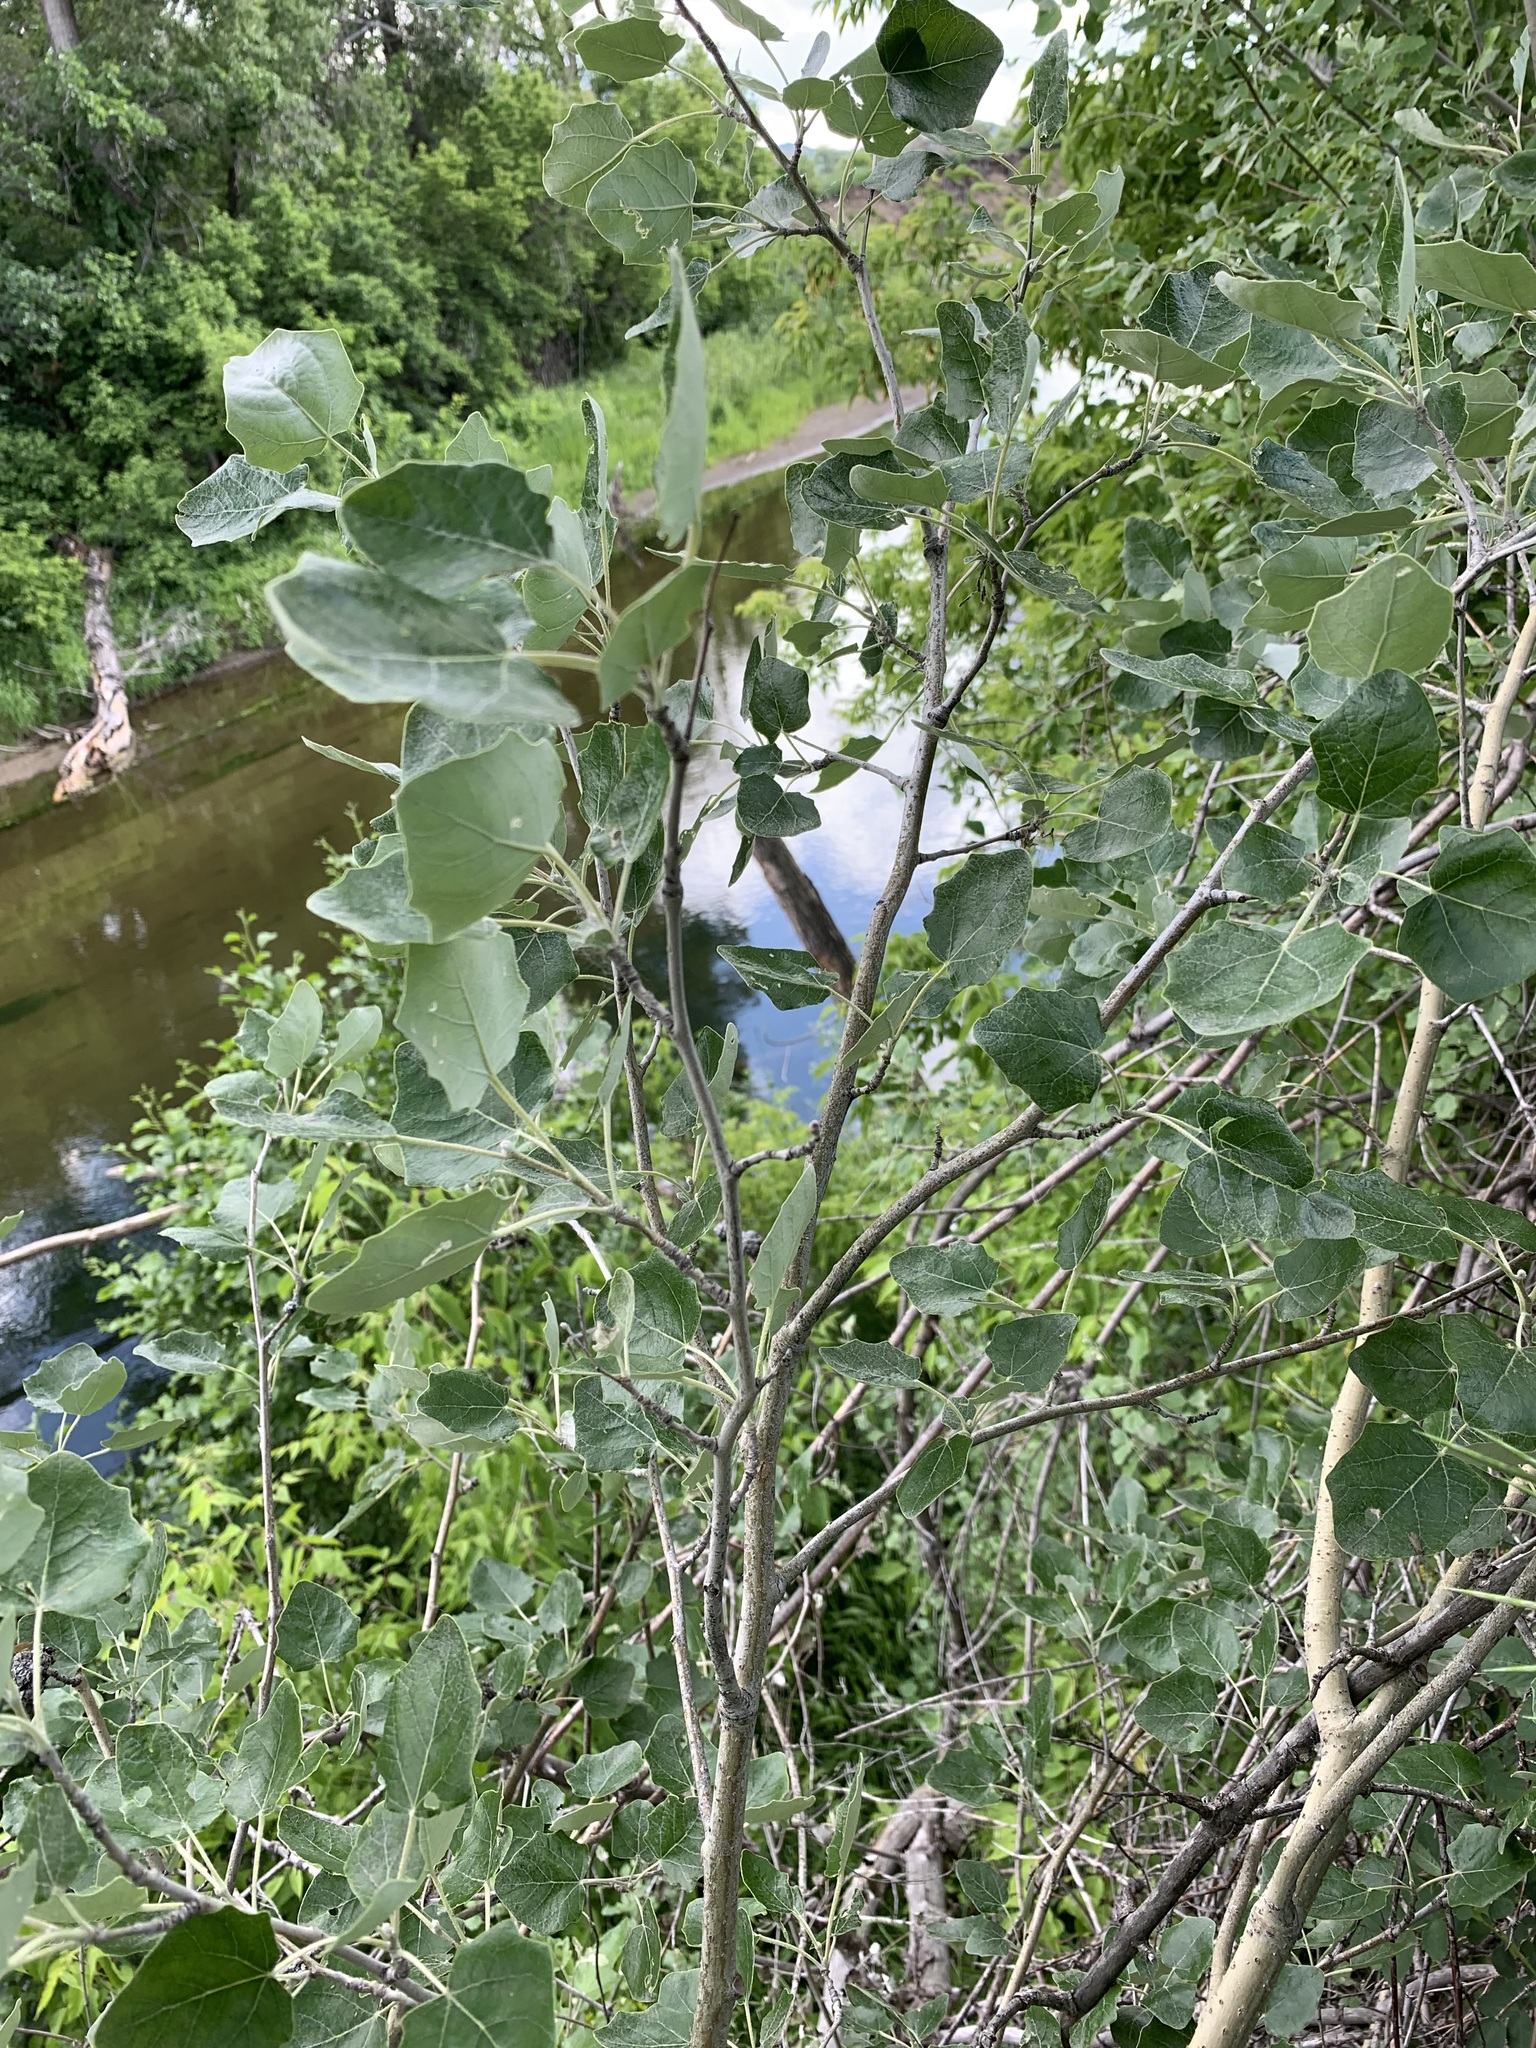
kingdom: Plantae
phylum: Tracheophyta
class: Magnoliopsida
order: Malpighiales
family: Salicaceae
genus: Populus
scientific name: Populus alba
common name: White poplar
